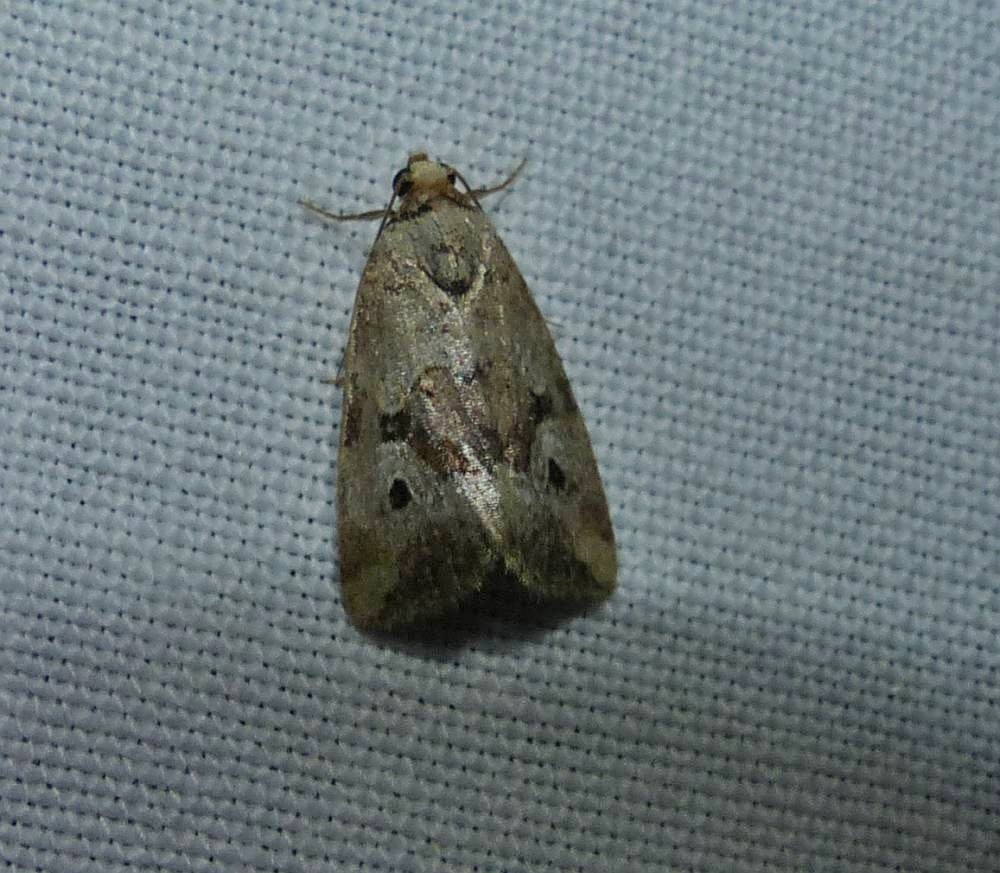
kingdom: Animalia
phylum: Arthropoda
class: Insecta
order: Lepidoptera
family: Noctuidae
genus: Elaphria
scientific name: Elaphria alapallida
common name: Pale-winged midget
